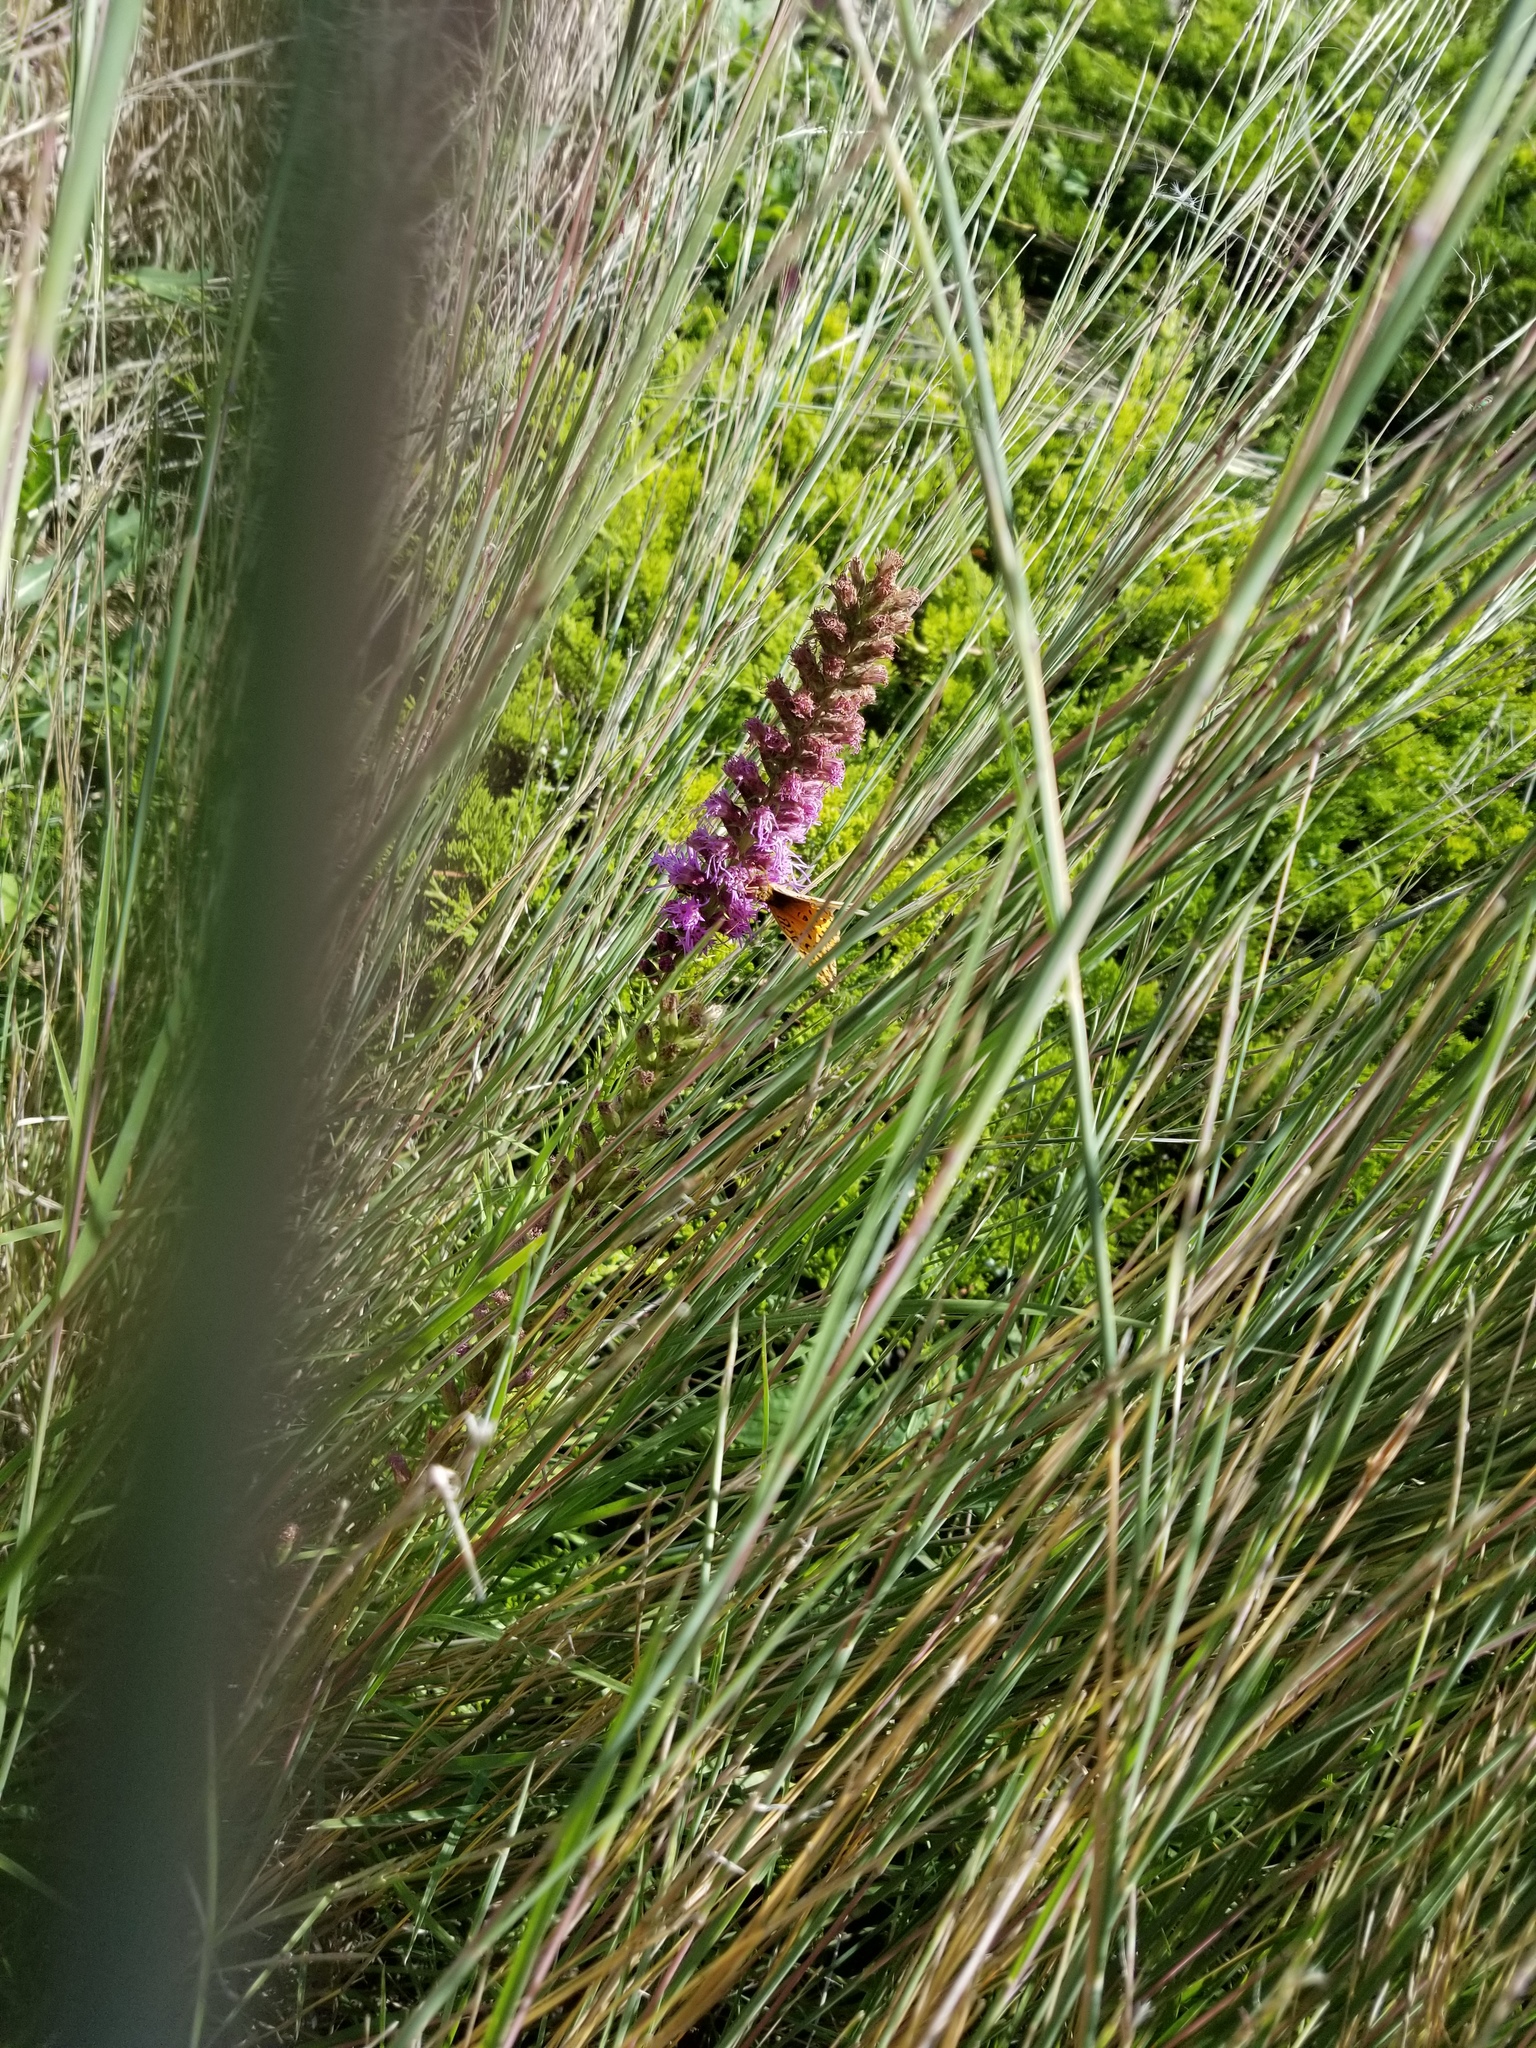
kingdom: Animalia
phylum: Arthropoda
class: Insecta
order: Lepidoptera
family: Nymphalidae
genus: Speyeria
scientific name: Speyeria aphrodite
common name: Aphrodite friitllary
